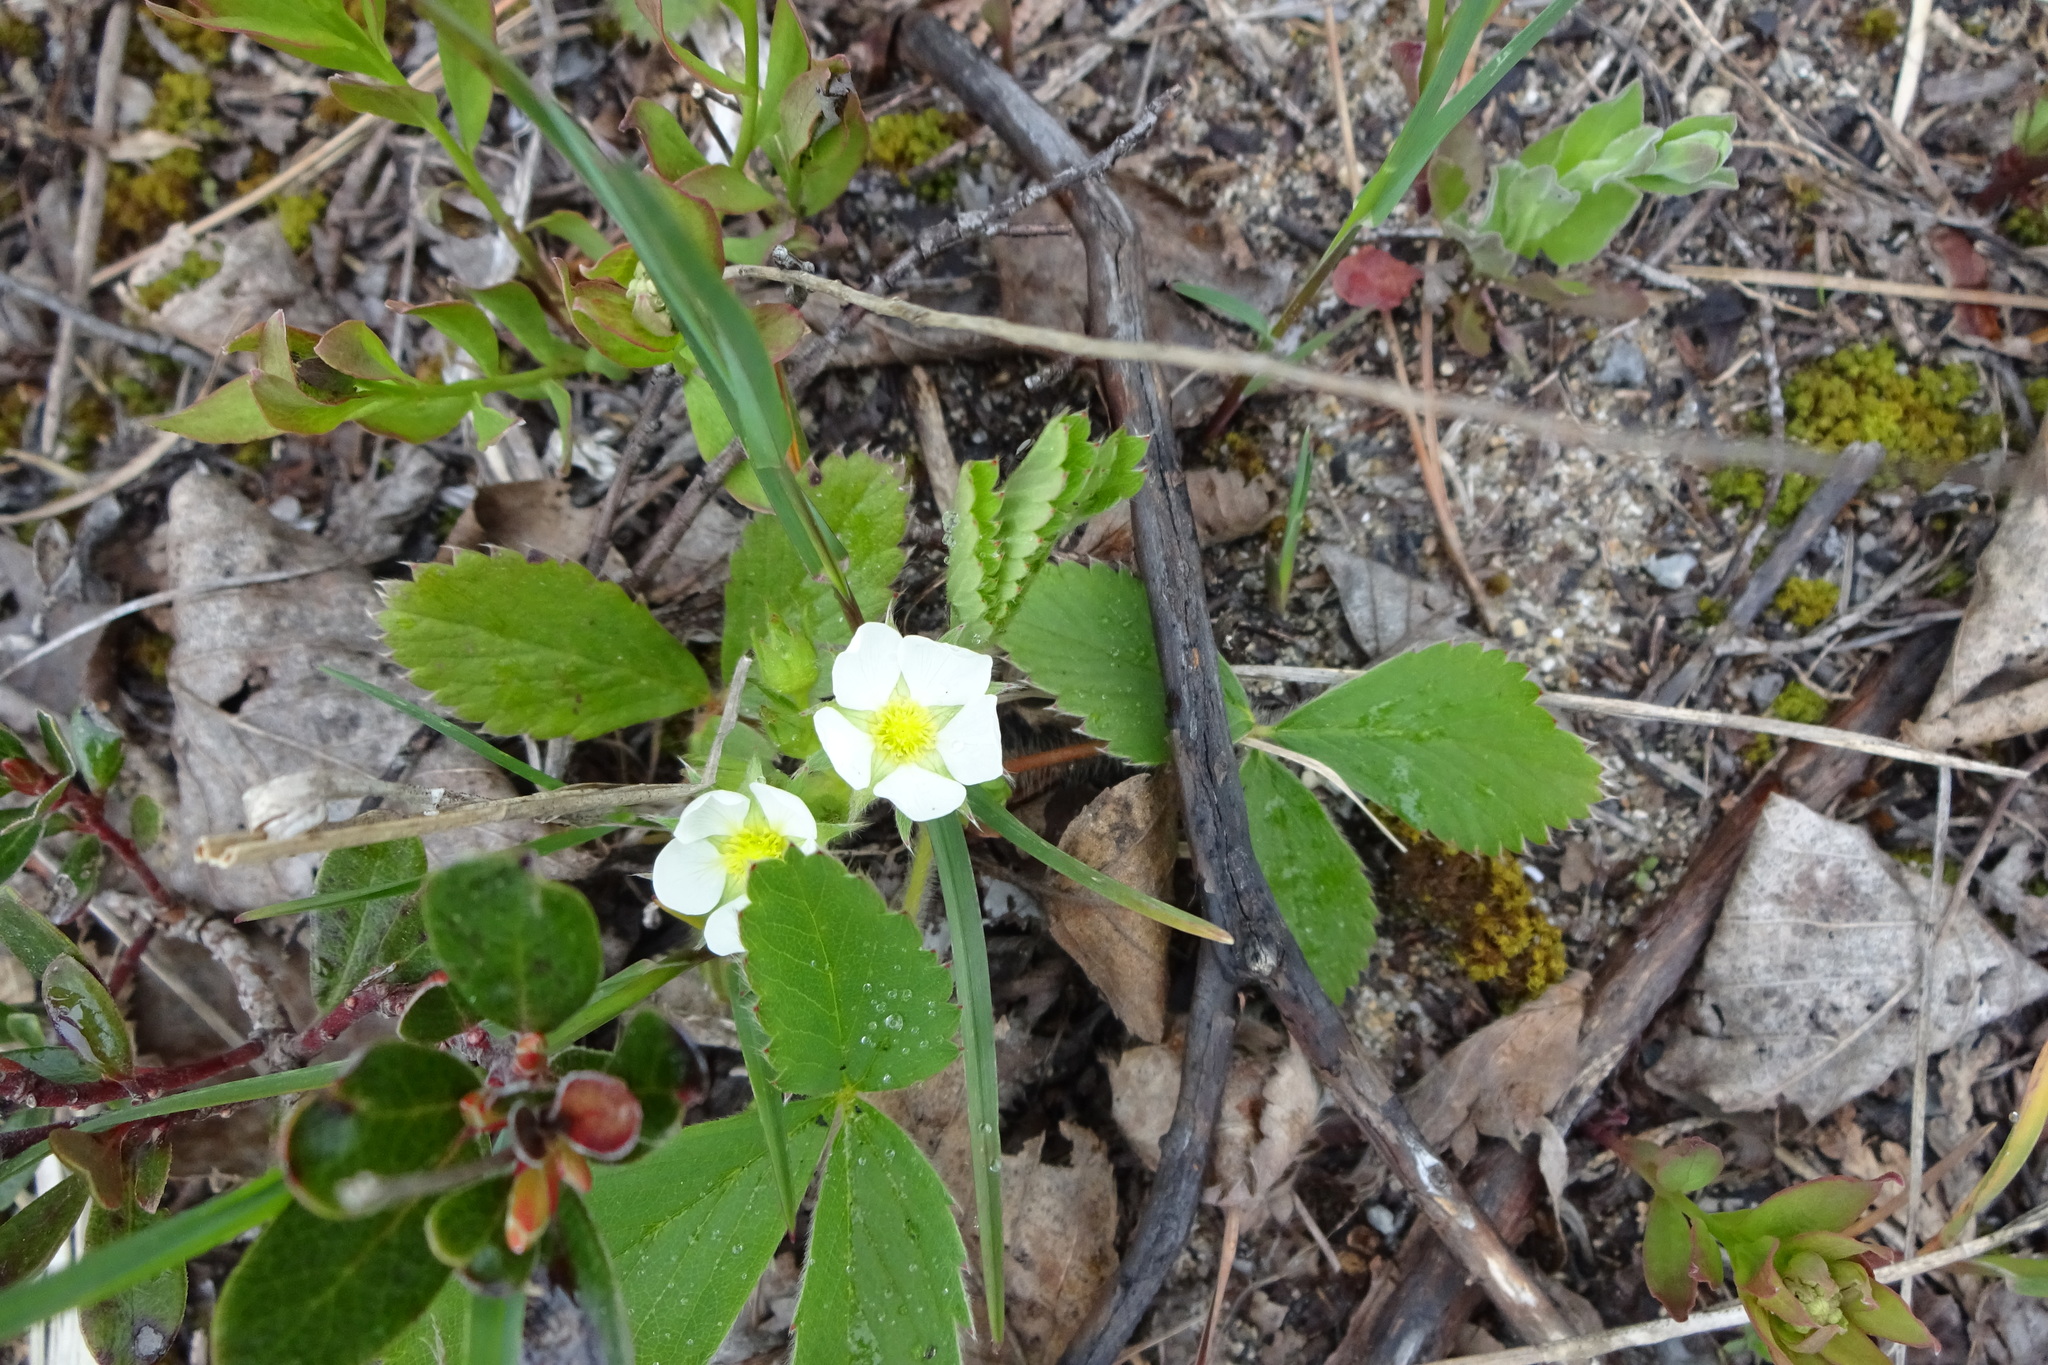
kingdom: Plantae
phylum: Tracheophyta
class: Magnoliopsida
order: Rosales
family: Rosaceae
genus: Fragaria
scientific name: Fragaria virginiana
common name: Thickleaved wild strawberry
